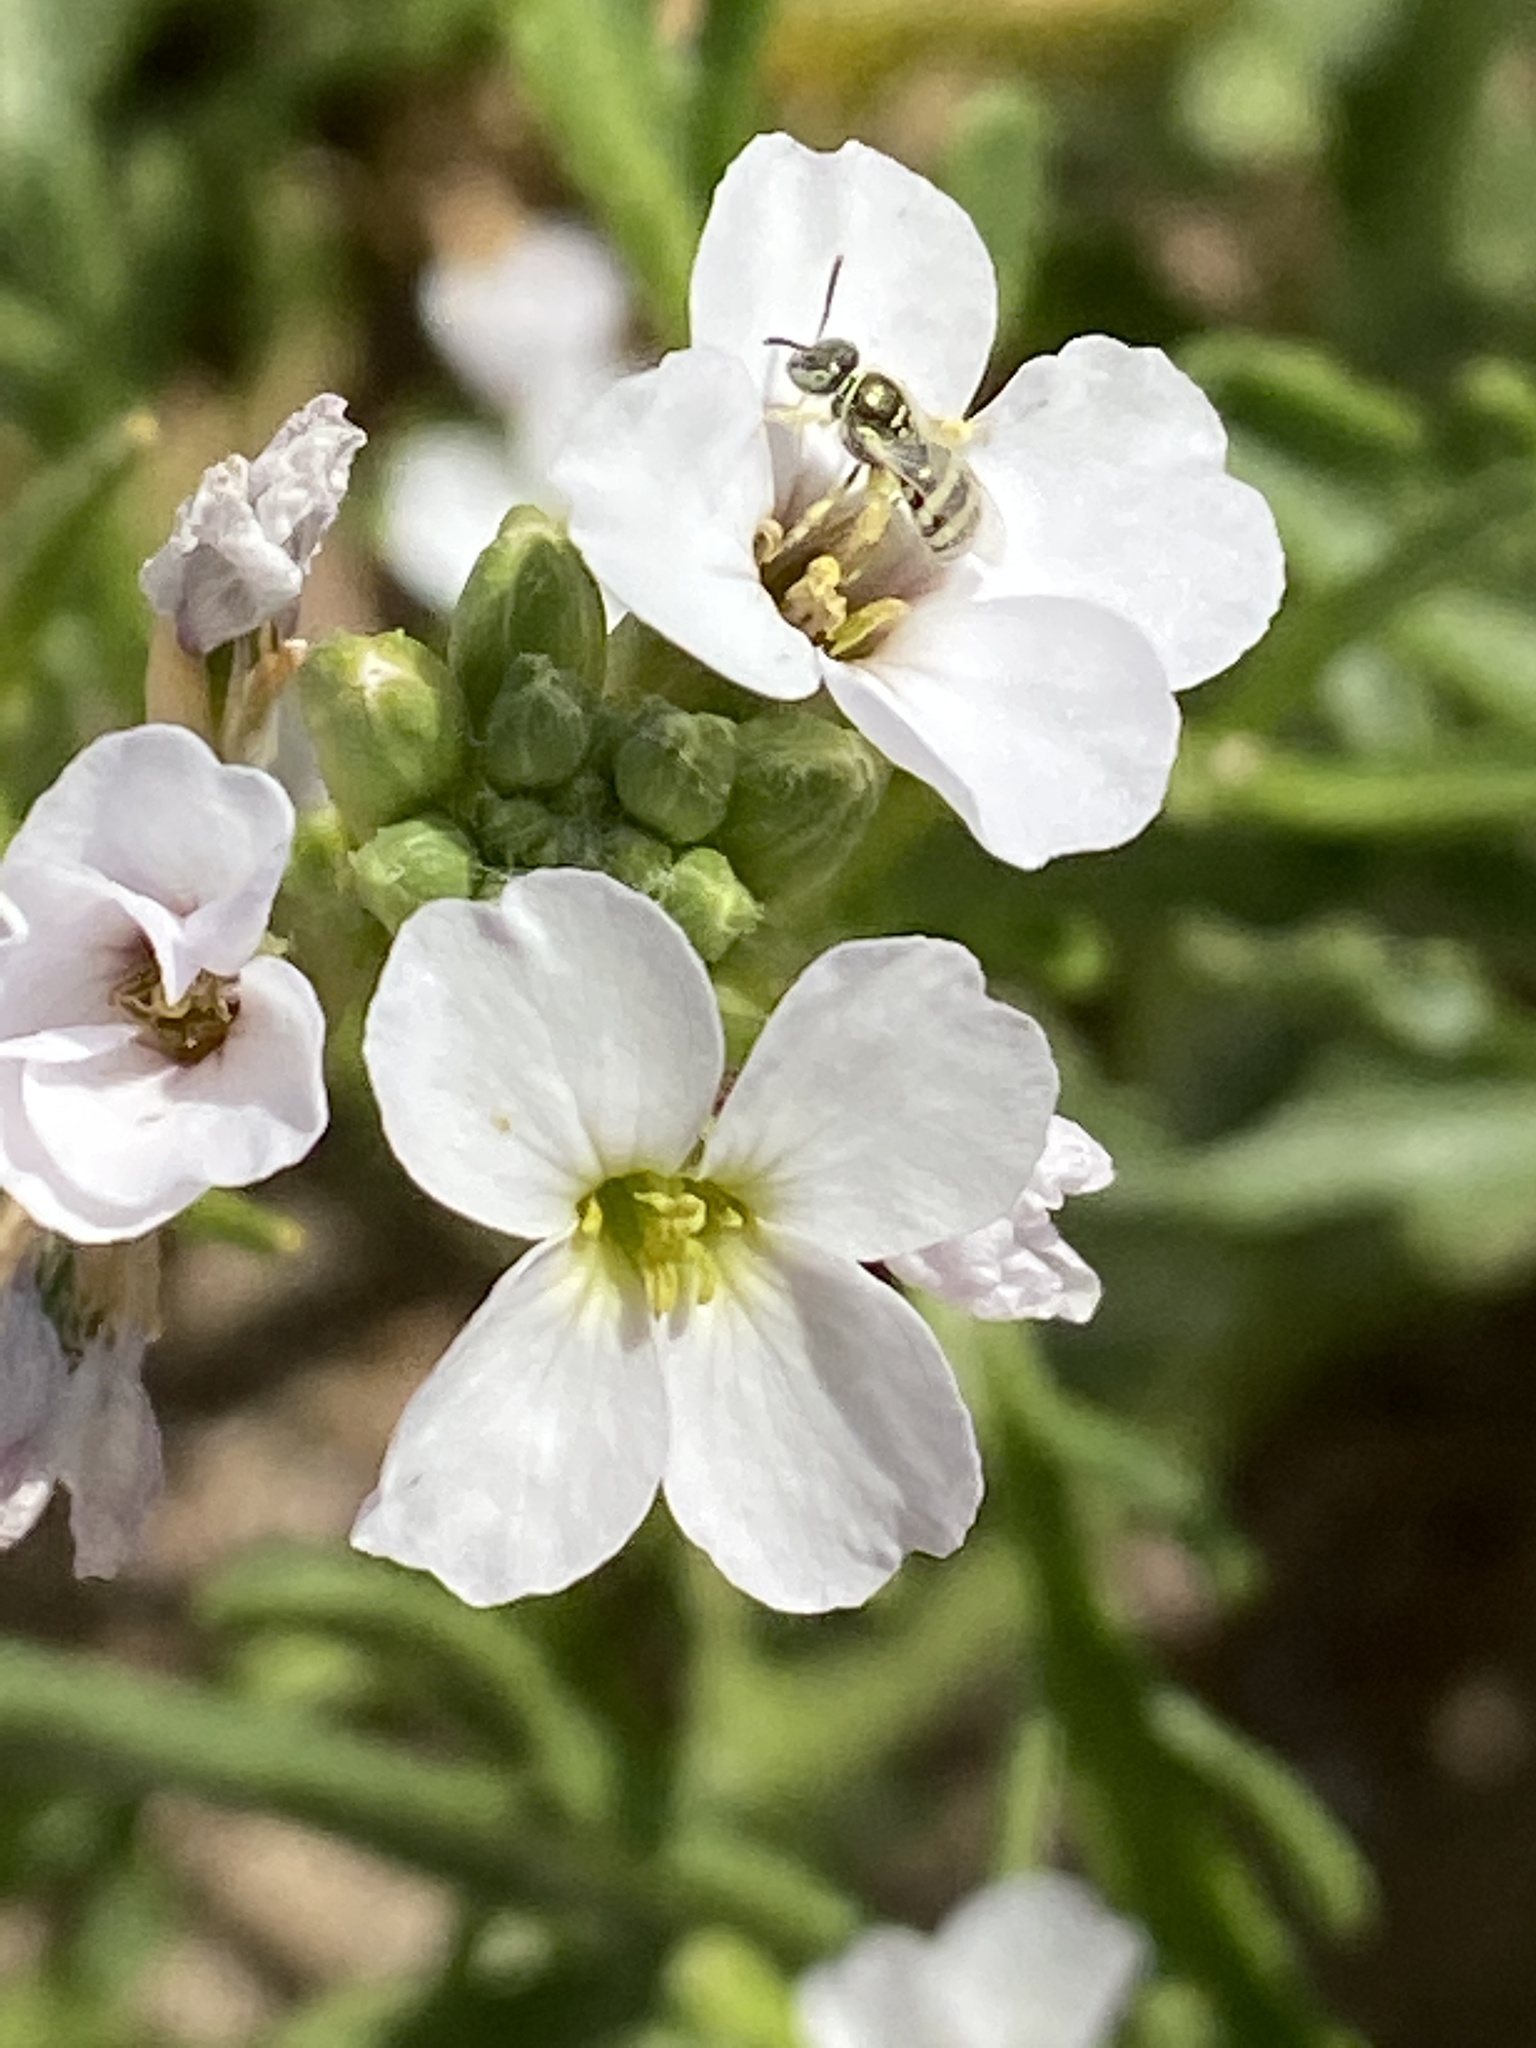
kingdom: Animalia
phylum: Arthropoda
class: Insecta
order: Hymenoptera
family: Halictidae
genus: Ceylalictus
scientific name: Ceylalictus variegatus
